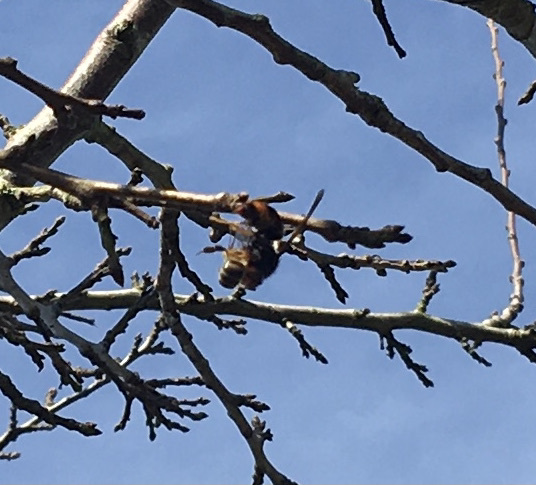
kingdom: Animalia
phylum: Arthropoda
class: Insecta
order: Hymenoptera
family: Vespidae
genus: Vespa
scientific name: Vespa velutina
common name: Asian hornet
